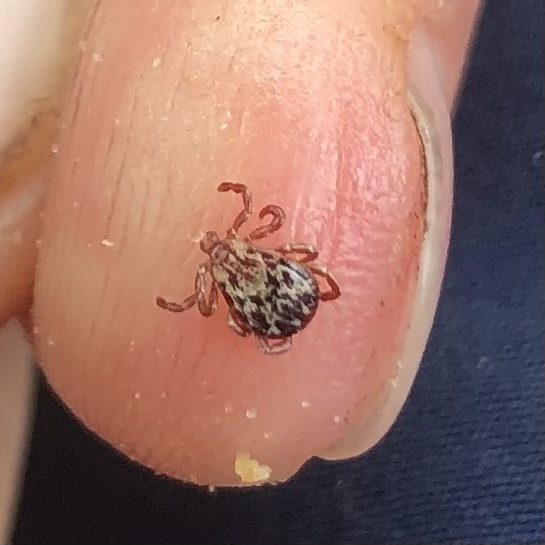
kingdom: Animalia
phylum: Arthropoda
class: Arachnida
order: Ixodida
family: Ixodidae
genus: Dermacentor
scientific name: Dermacentor andersoni
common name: Rocky mountain wood tick
